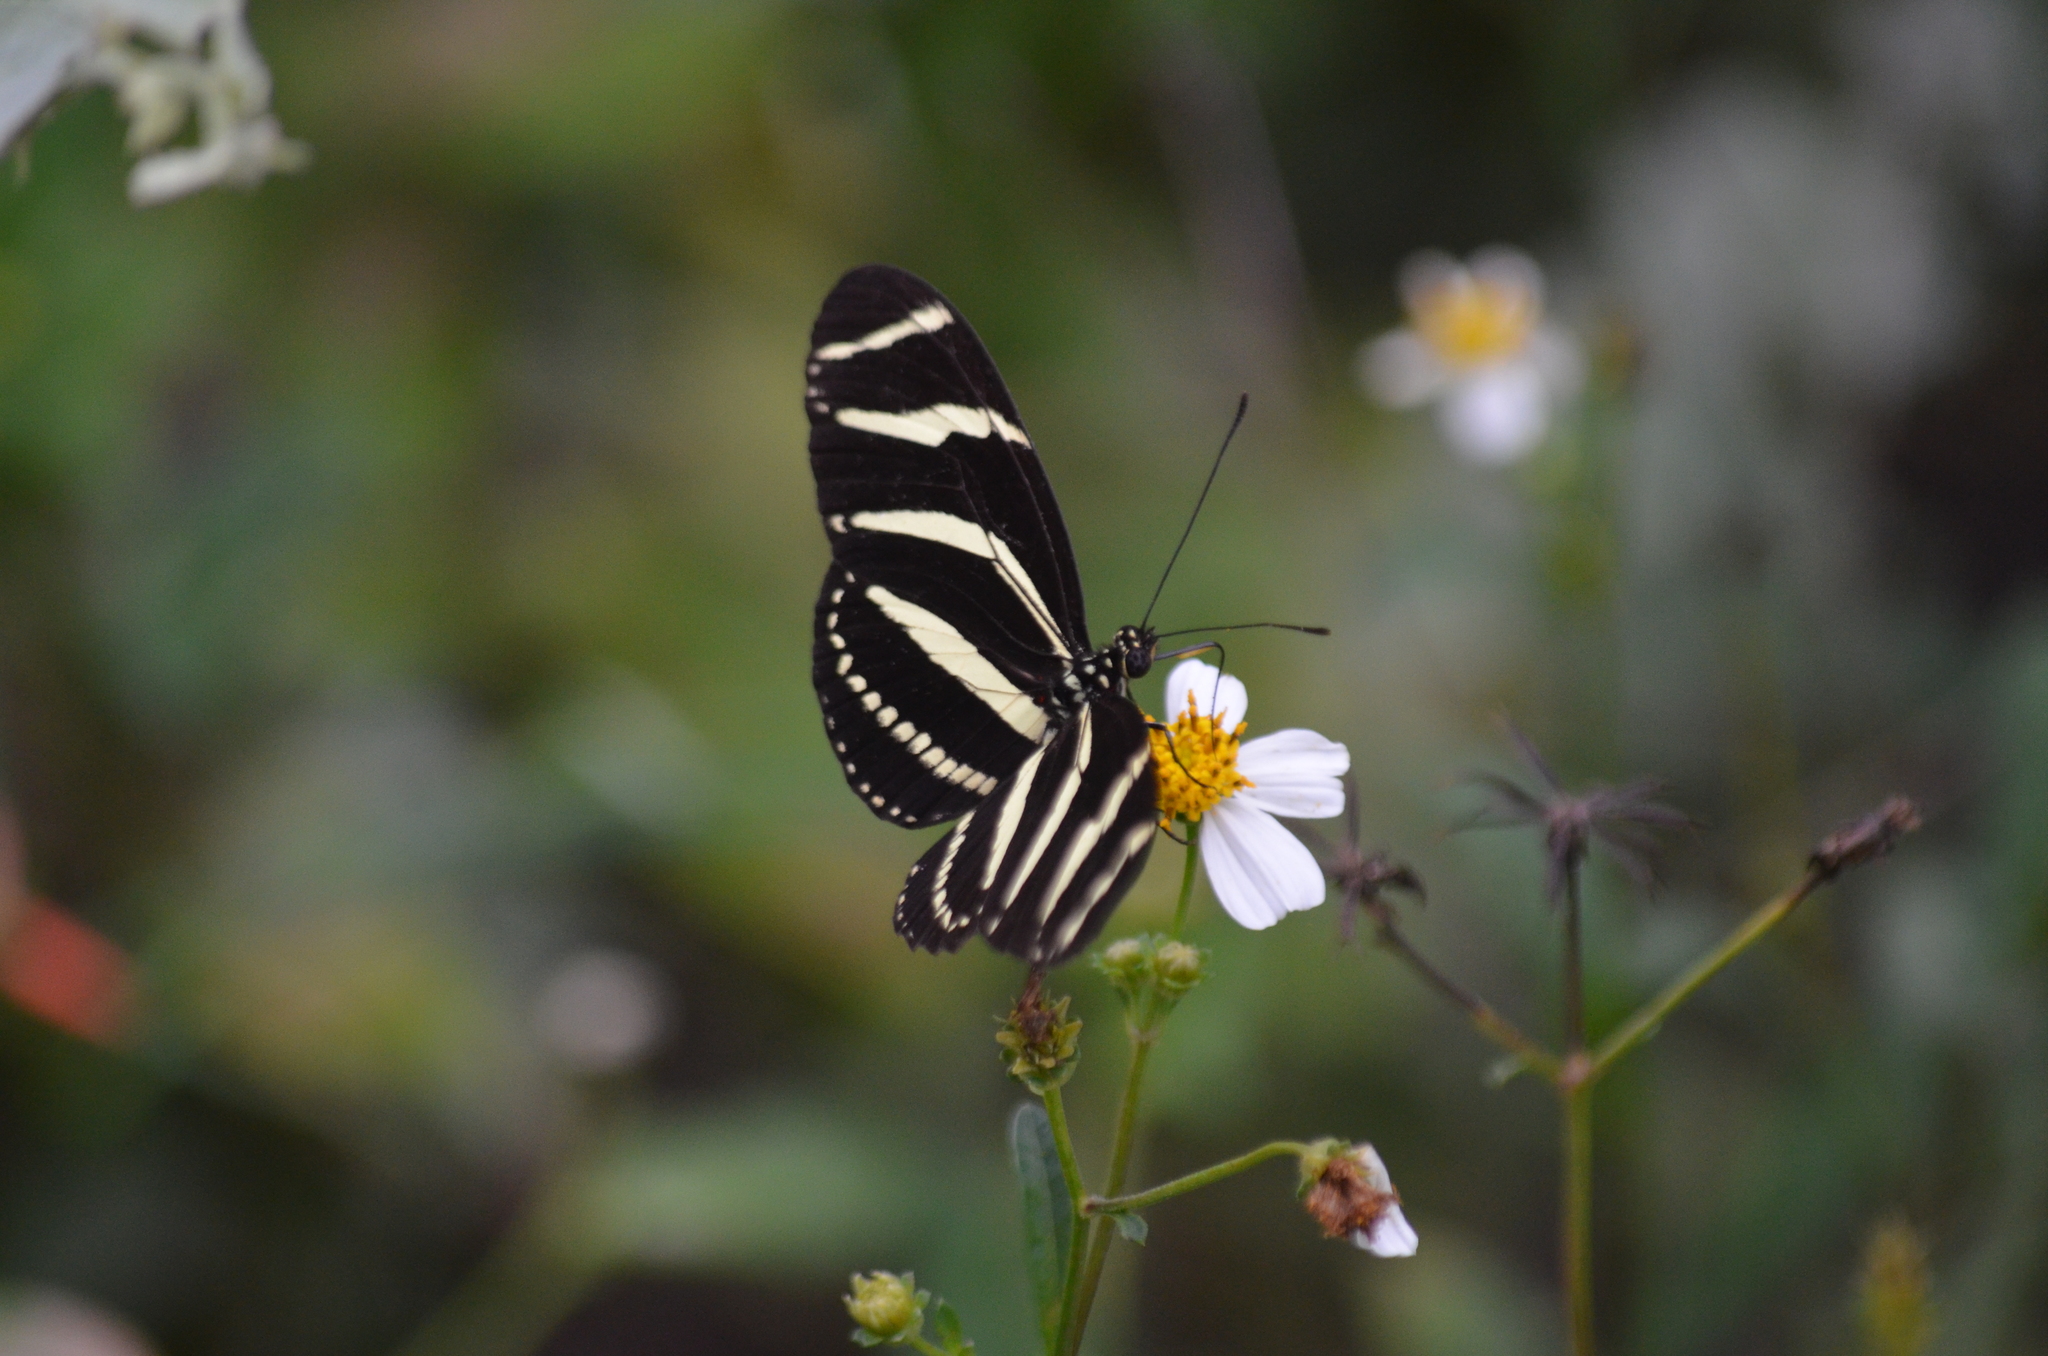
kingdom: Animalia
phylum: Arthropoda
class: Insecta
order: Lepidoptera
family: Nymphalidae
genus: Heliconius
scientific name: Heliconius charithonia
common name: Zebra long wing
